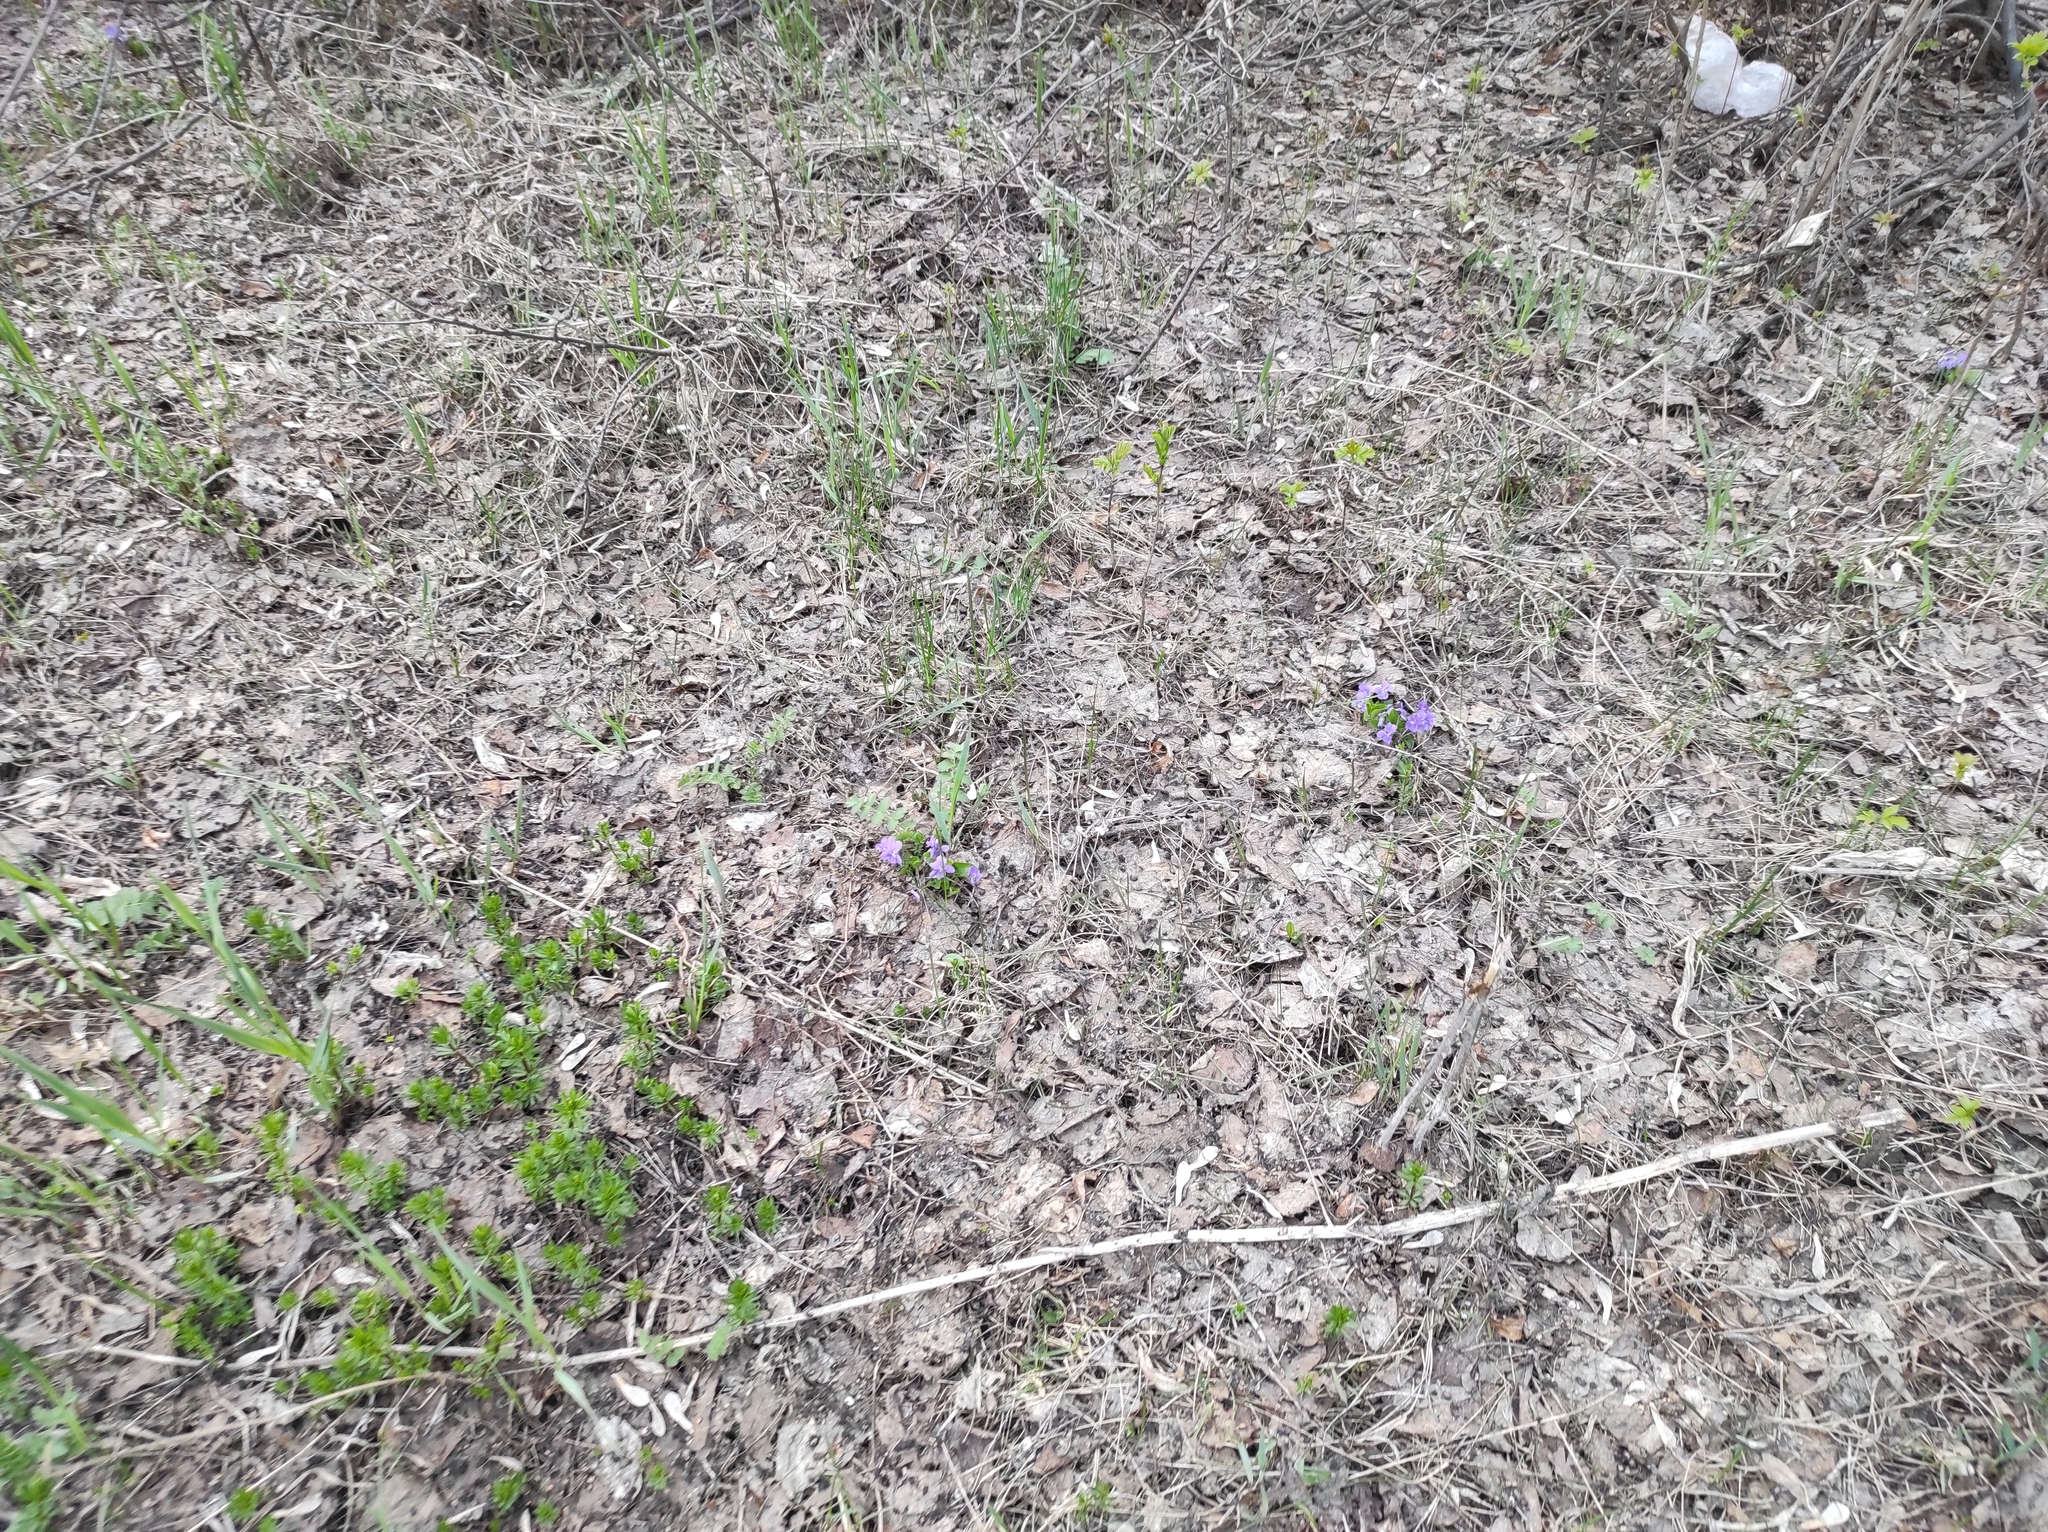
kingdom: Plantae
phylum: Tracheophyta
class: Magnoliopsida
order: Malpighiales
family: Violaceae
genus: Viola
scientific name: Viola hirta
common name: Hairy violet
